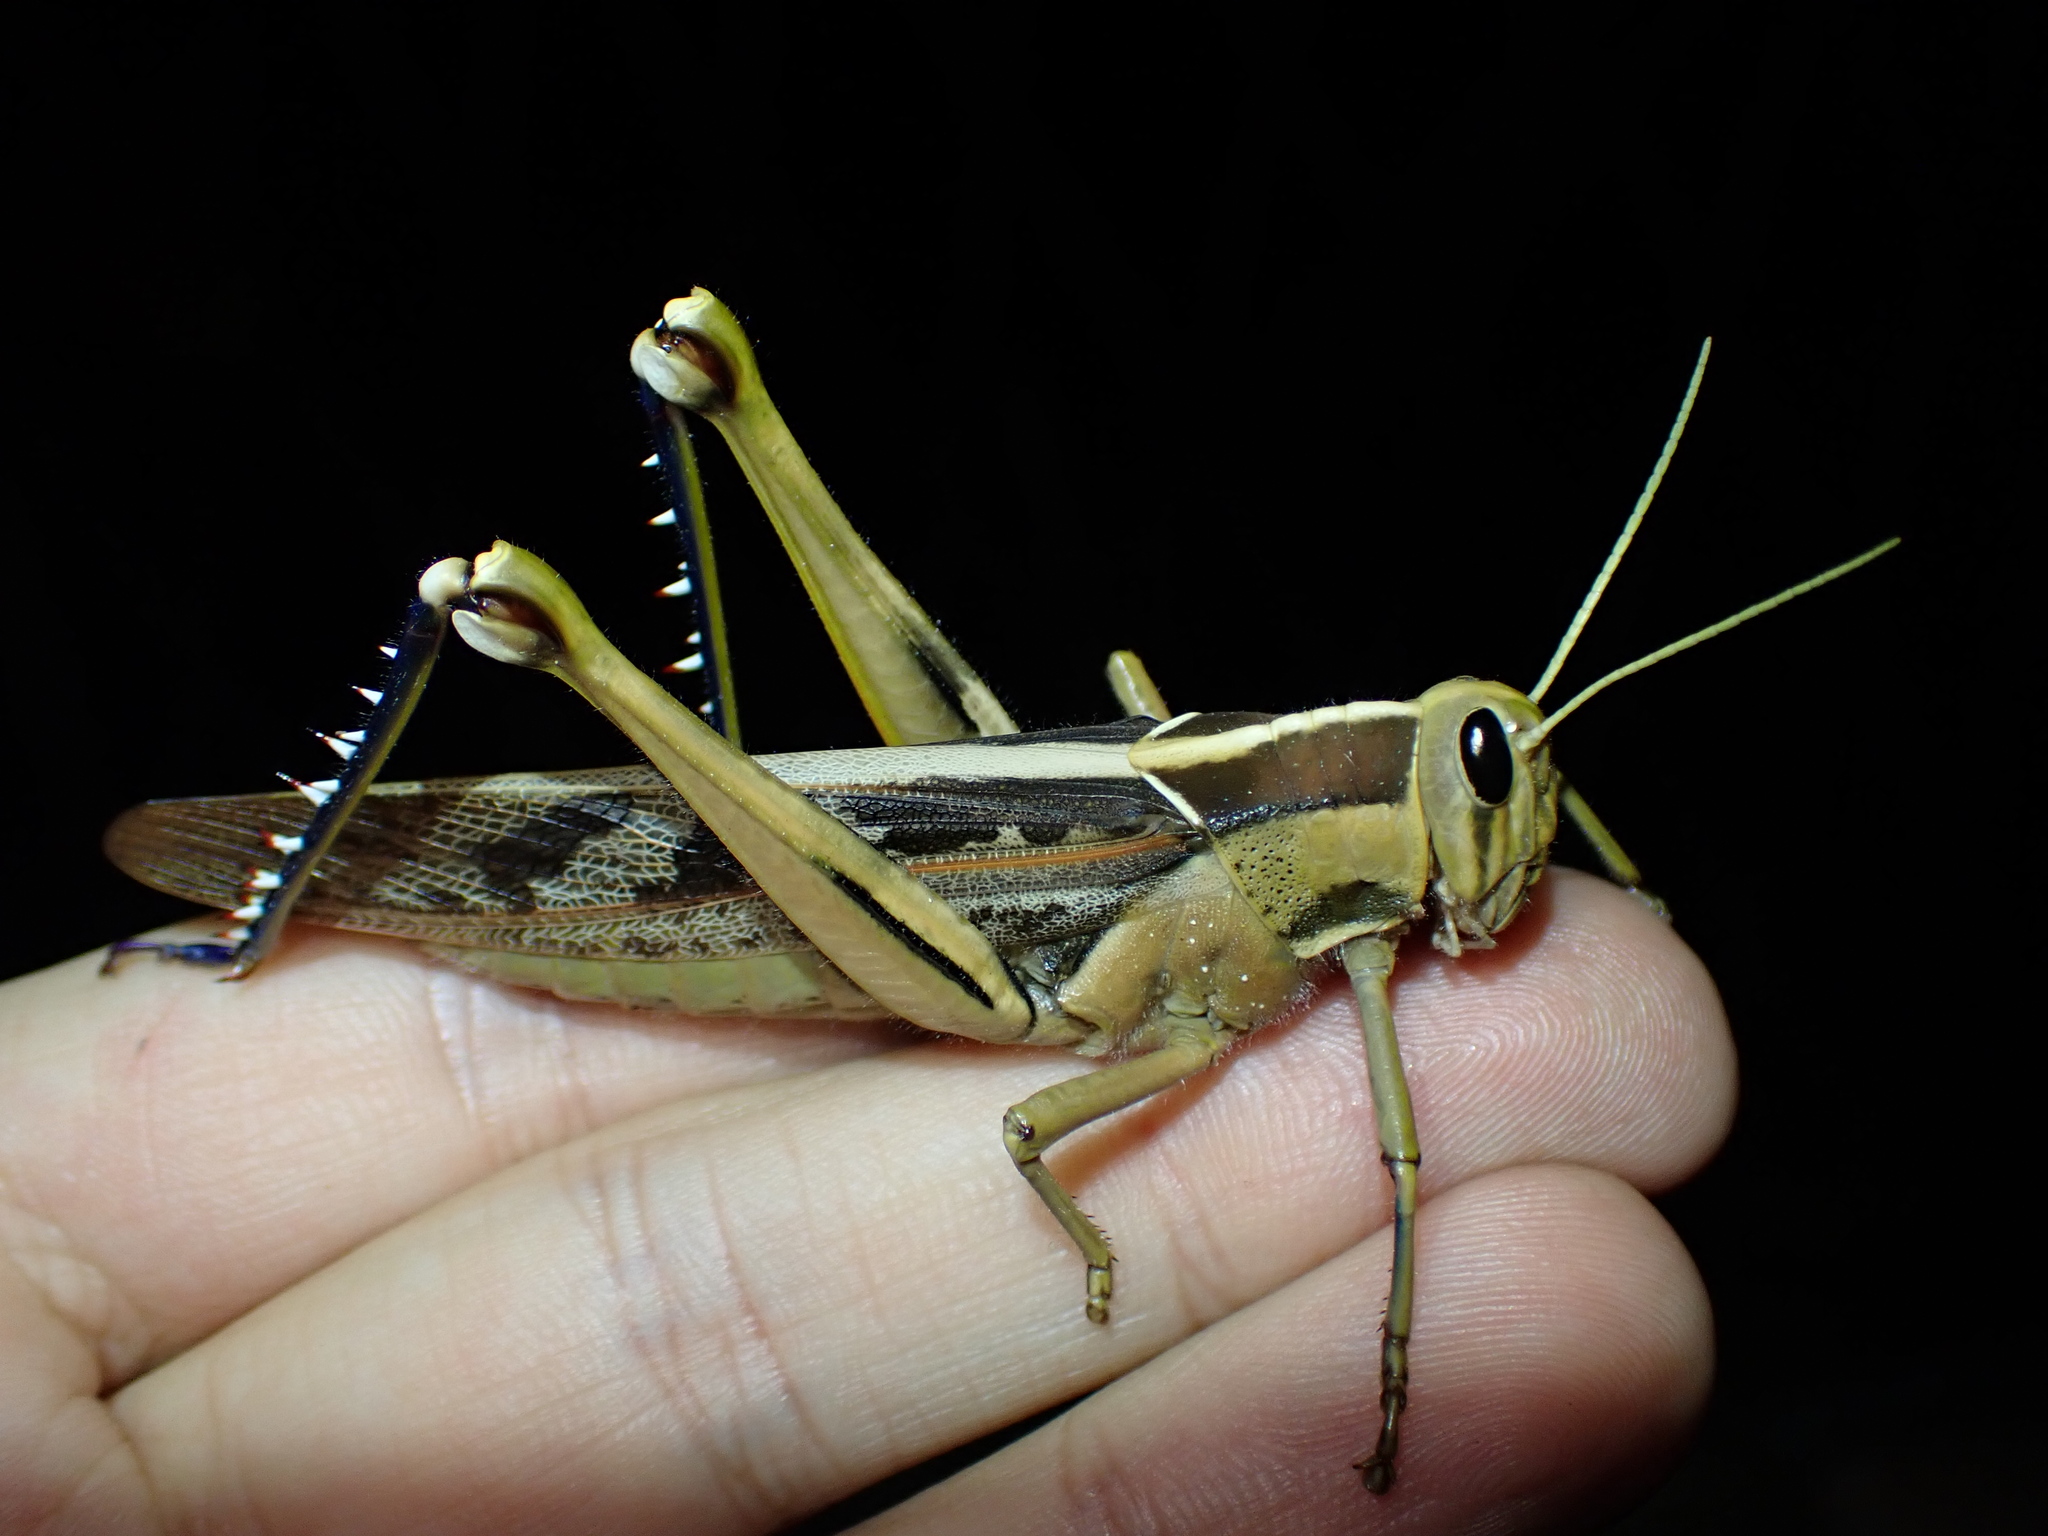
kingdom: Animalia
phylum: Arthropoda
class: Insecta
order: Orthoptera
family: Acrididae
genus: Acanthacris
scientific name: Acanthacris ruficornis
